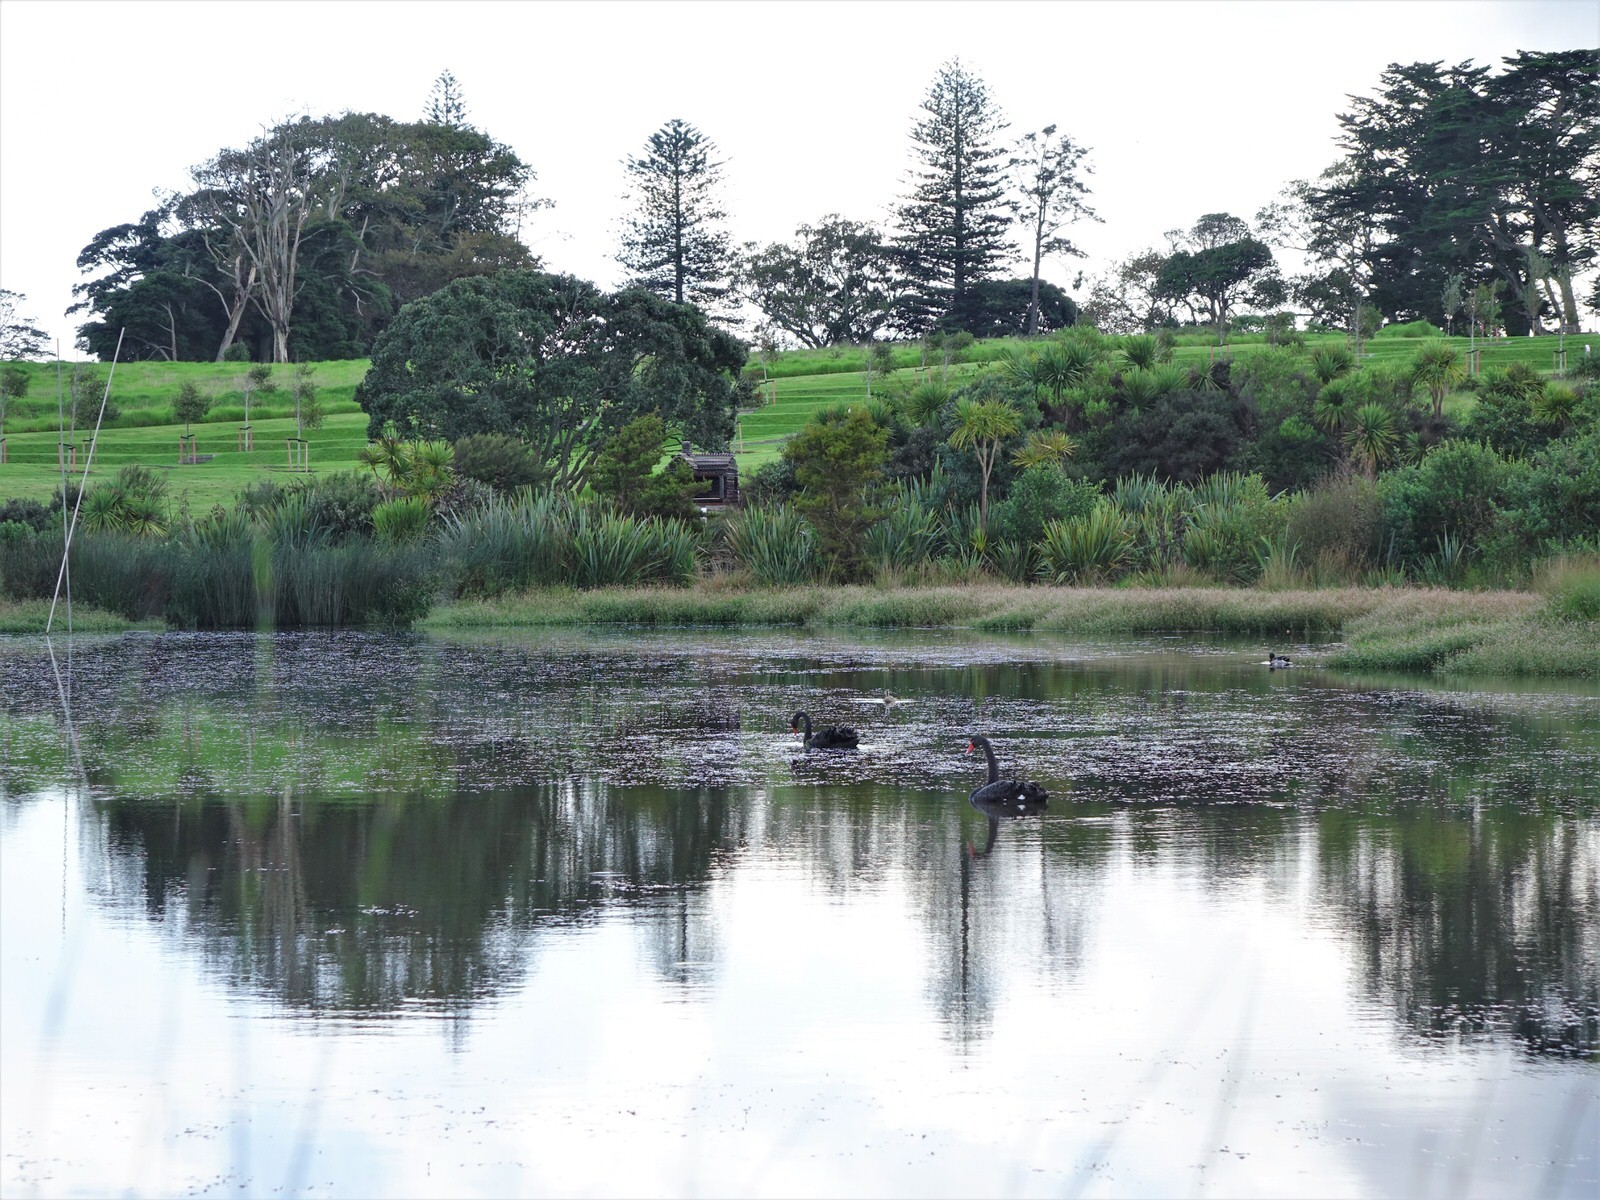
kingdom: Animalia
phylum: Chordata
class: Aves
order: Anseriformes
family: Anatidae
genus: Cygnus
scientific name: Cygnus atratus
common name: Black swan
